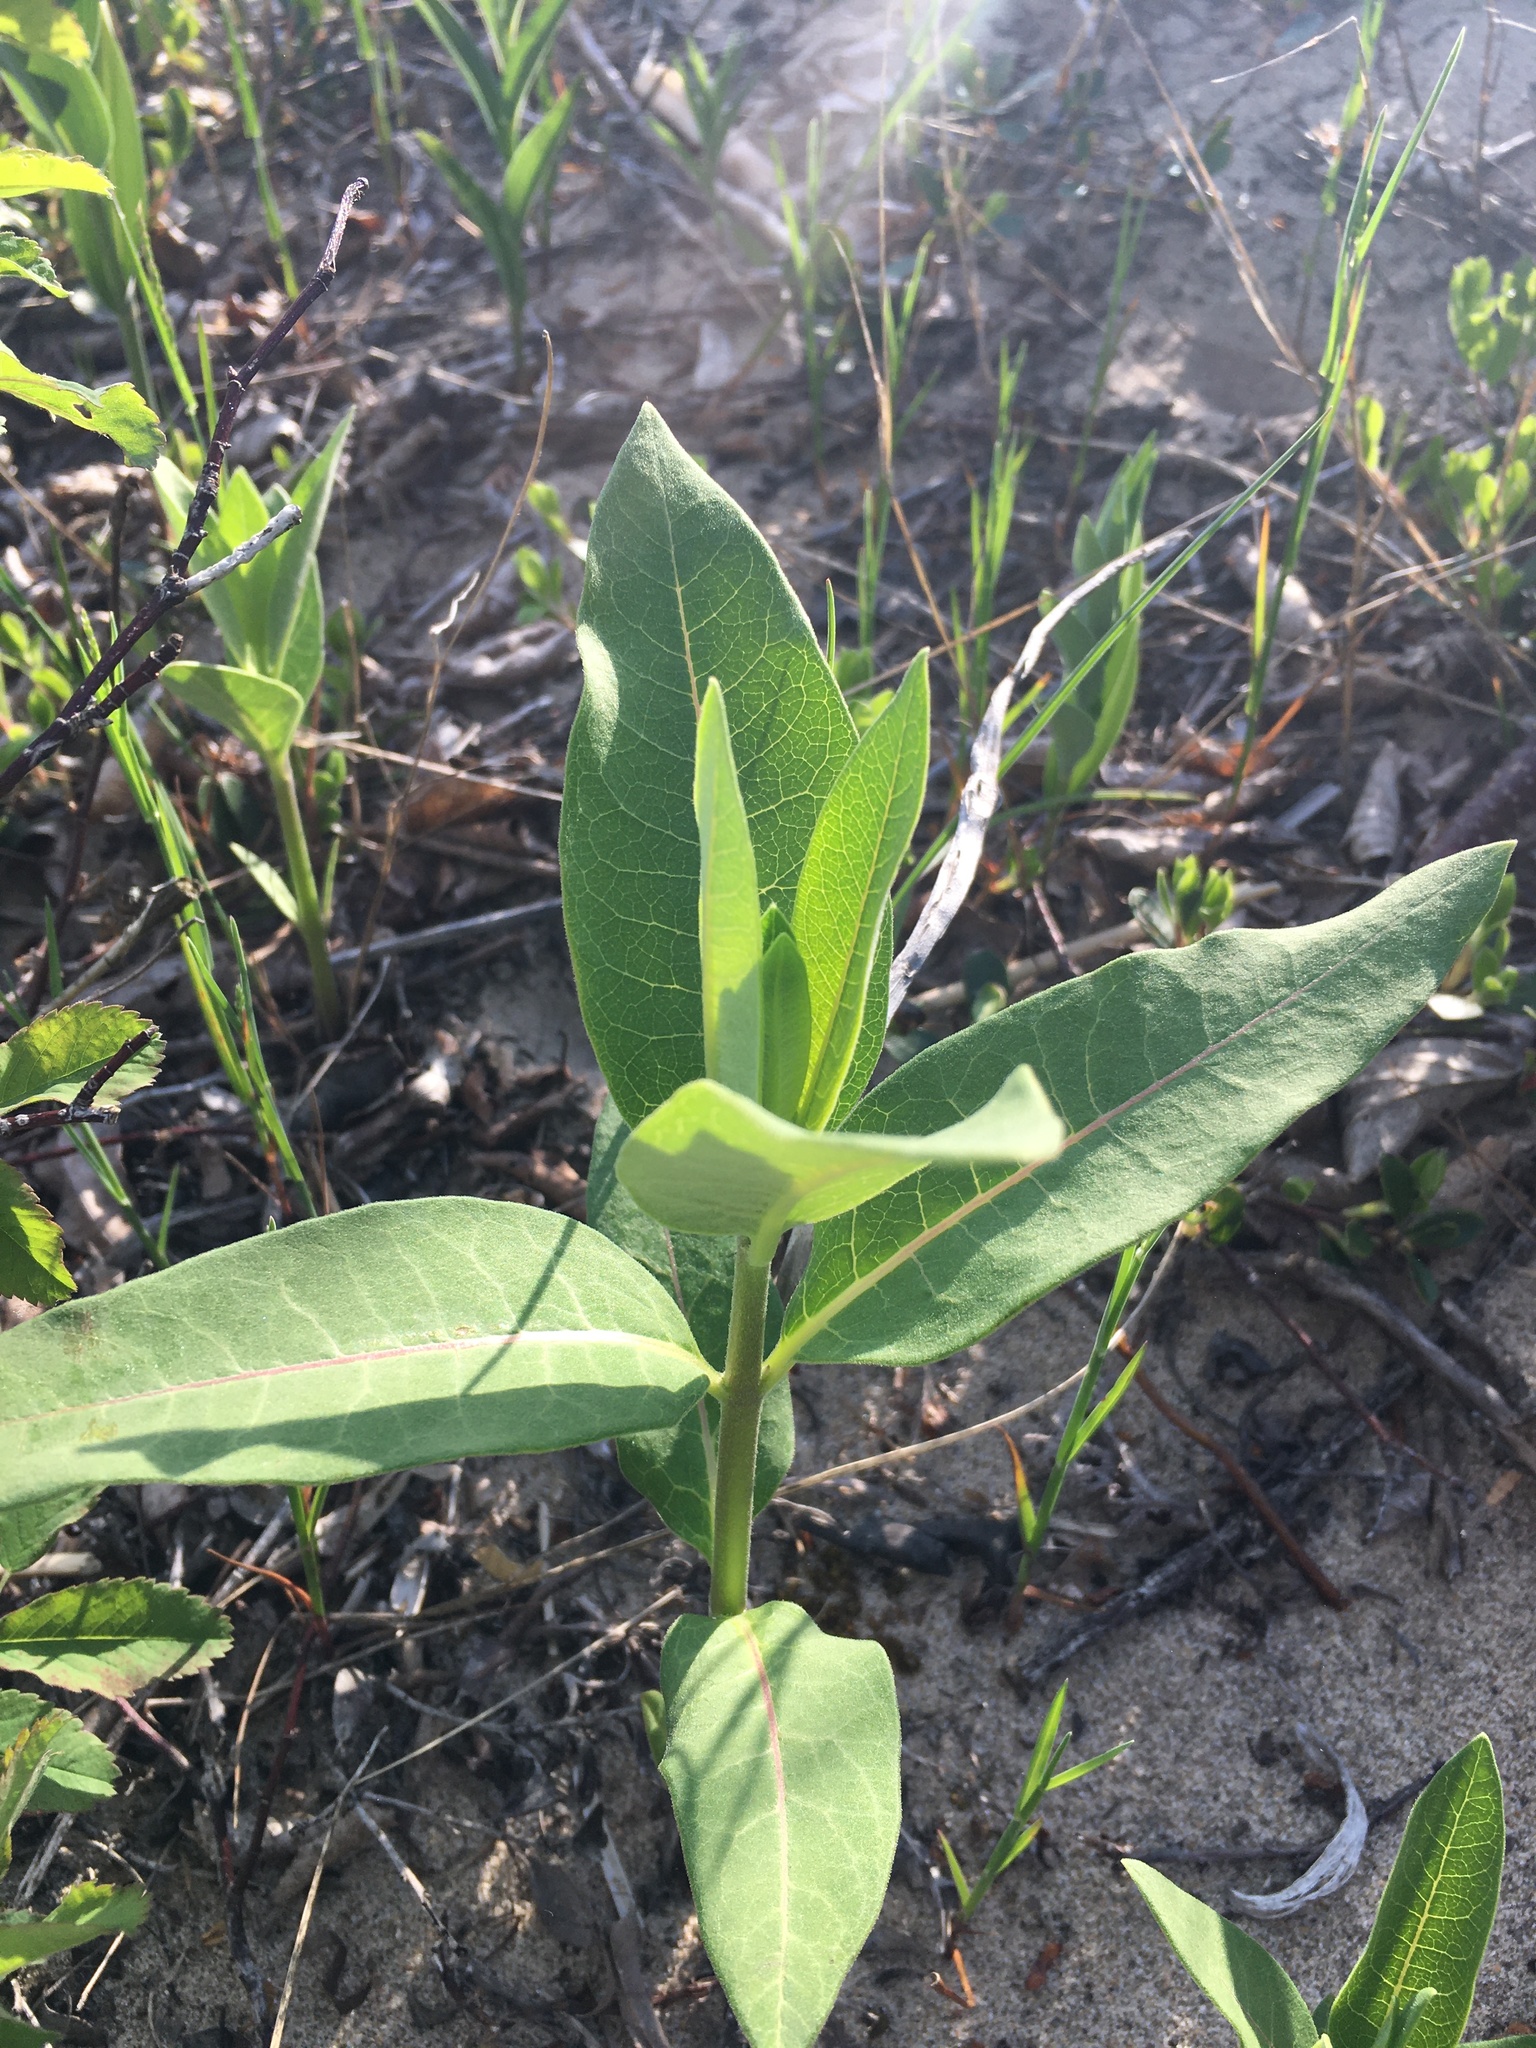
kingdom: Plantae
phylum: Tracheophyta
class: Magnoliopsida
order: Gentianales
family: Apocynaceae
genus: Asclepias
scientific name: Asclepias syriaca
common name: Common milkweed
